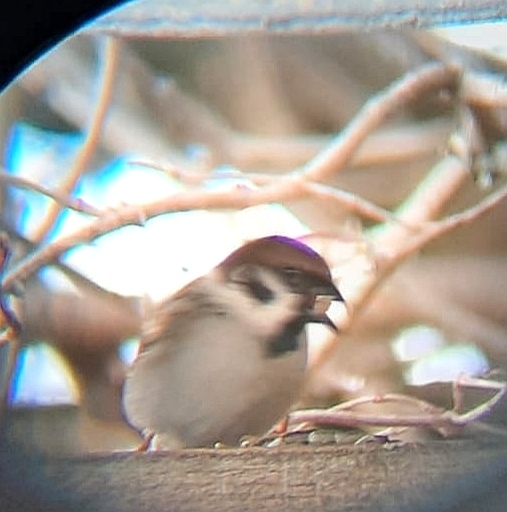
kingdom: Animalia
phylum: Chordata
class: Aves
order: Passeriformes
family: Passeridae
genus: Passer
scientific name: Passer montanus
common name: Eurasian tree sparrow
